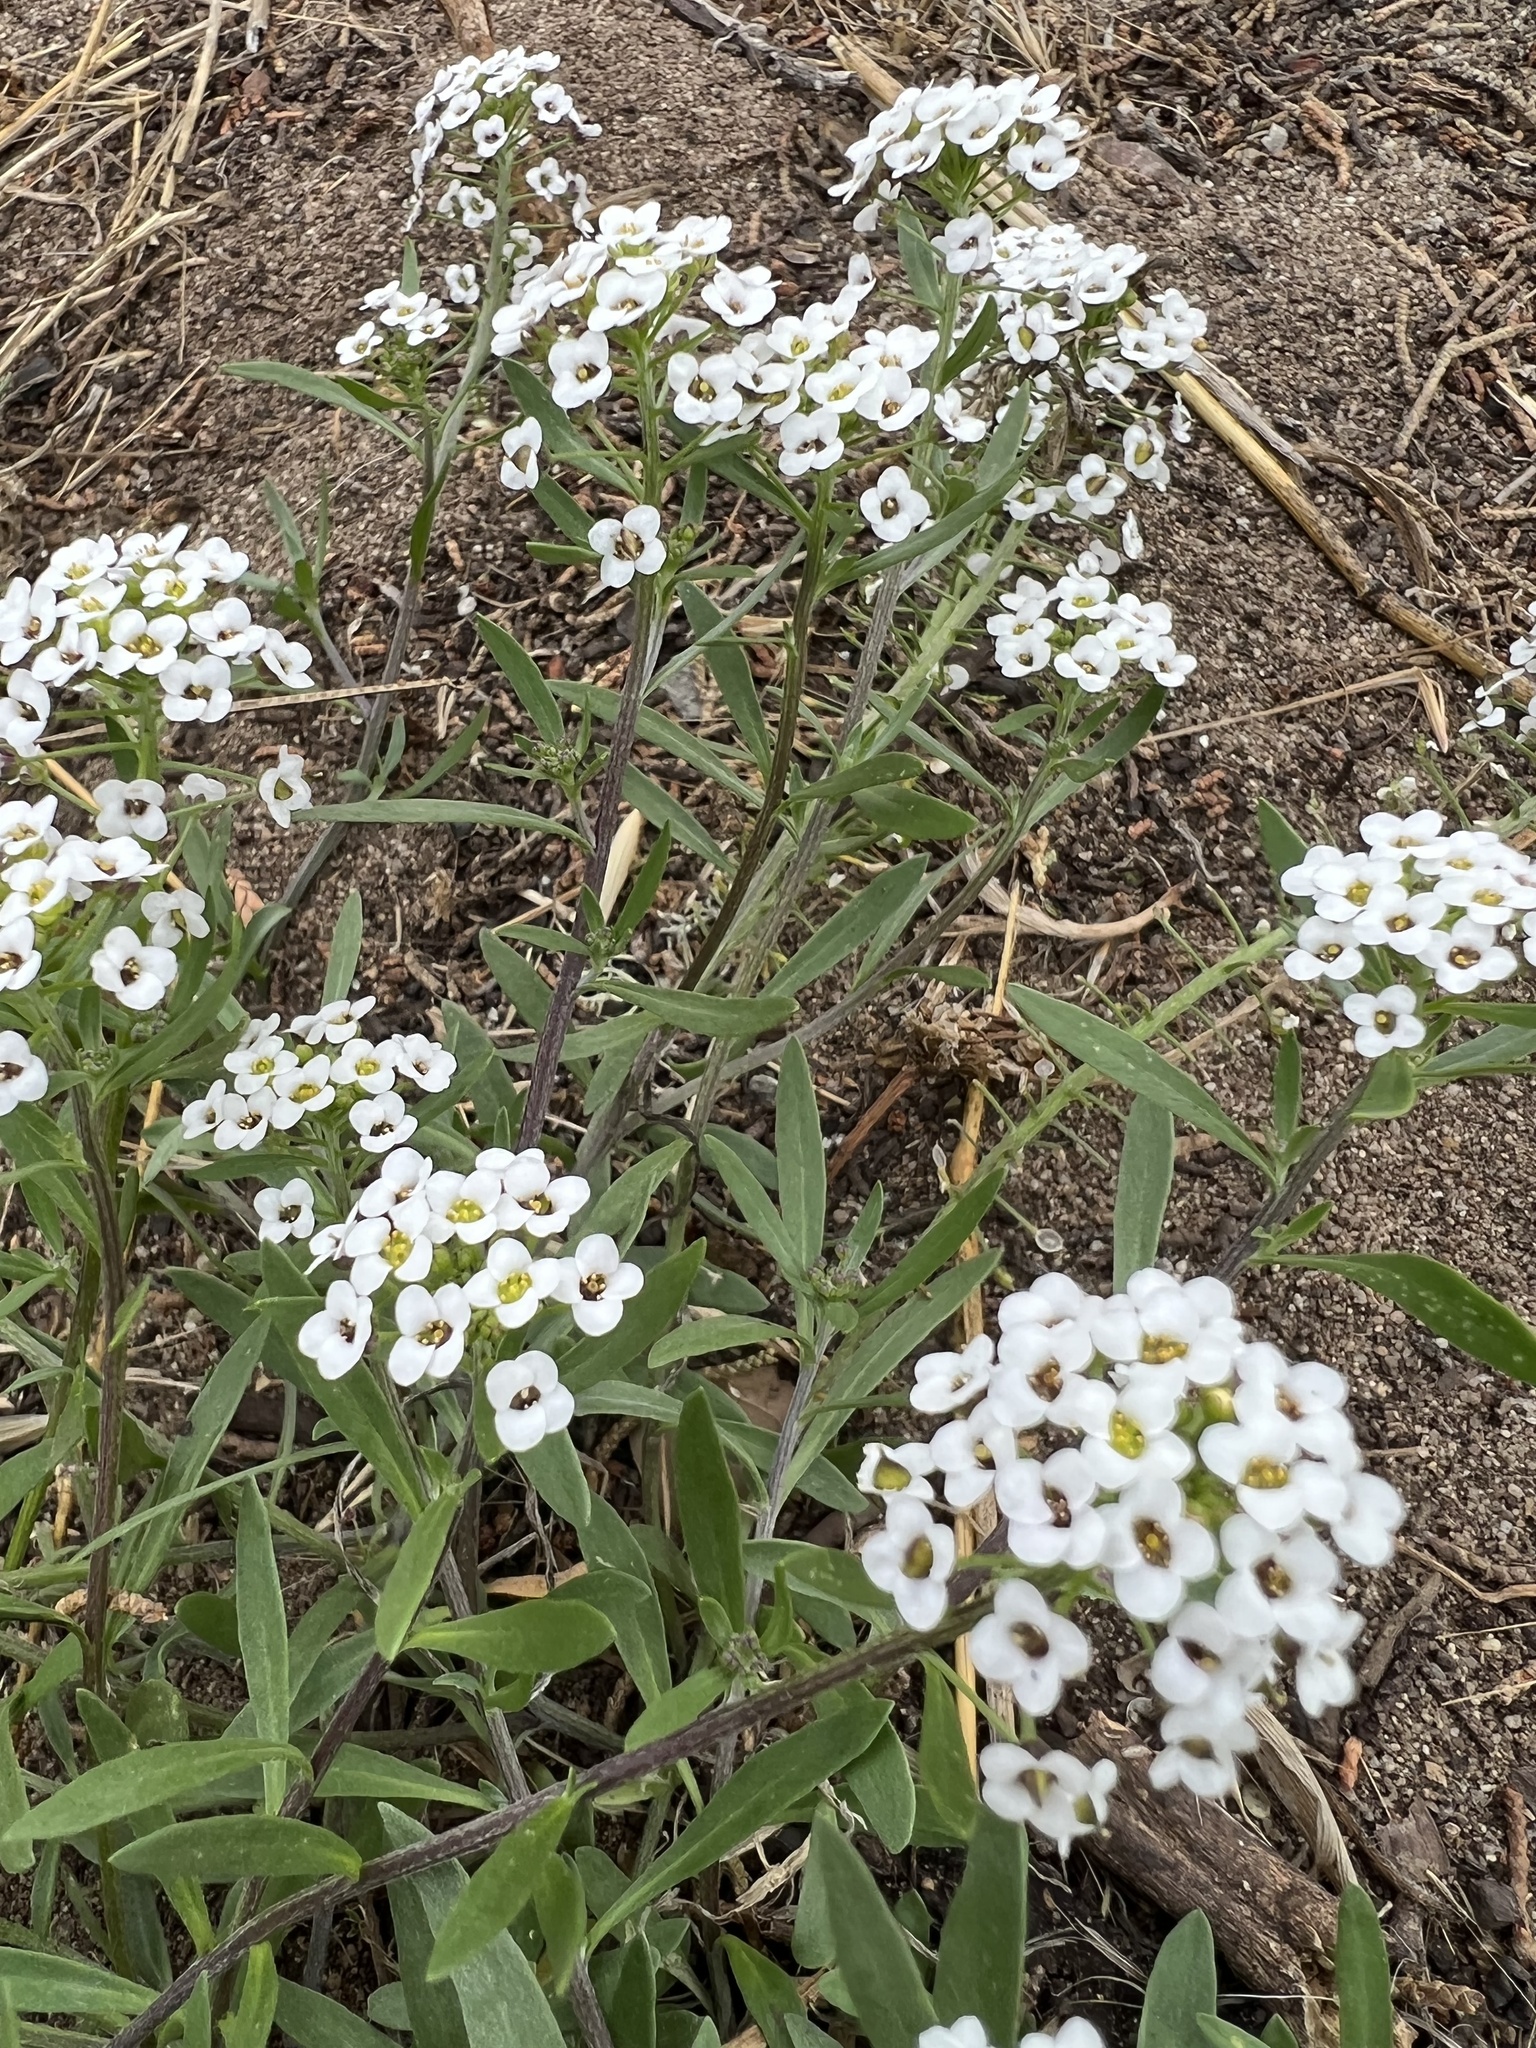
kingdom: Plantae
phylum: Tracheophyta
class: Magnoliopsida
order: Brassicales
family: Brassicaceae
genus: Lobularia
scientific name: Lobularia maritima
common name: Sweet alison
